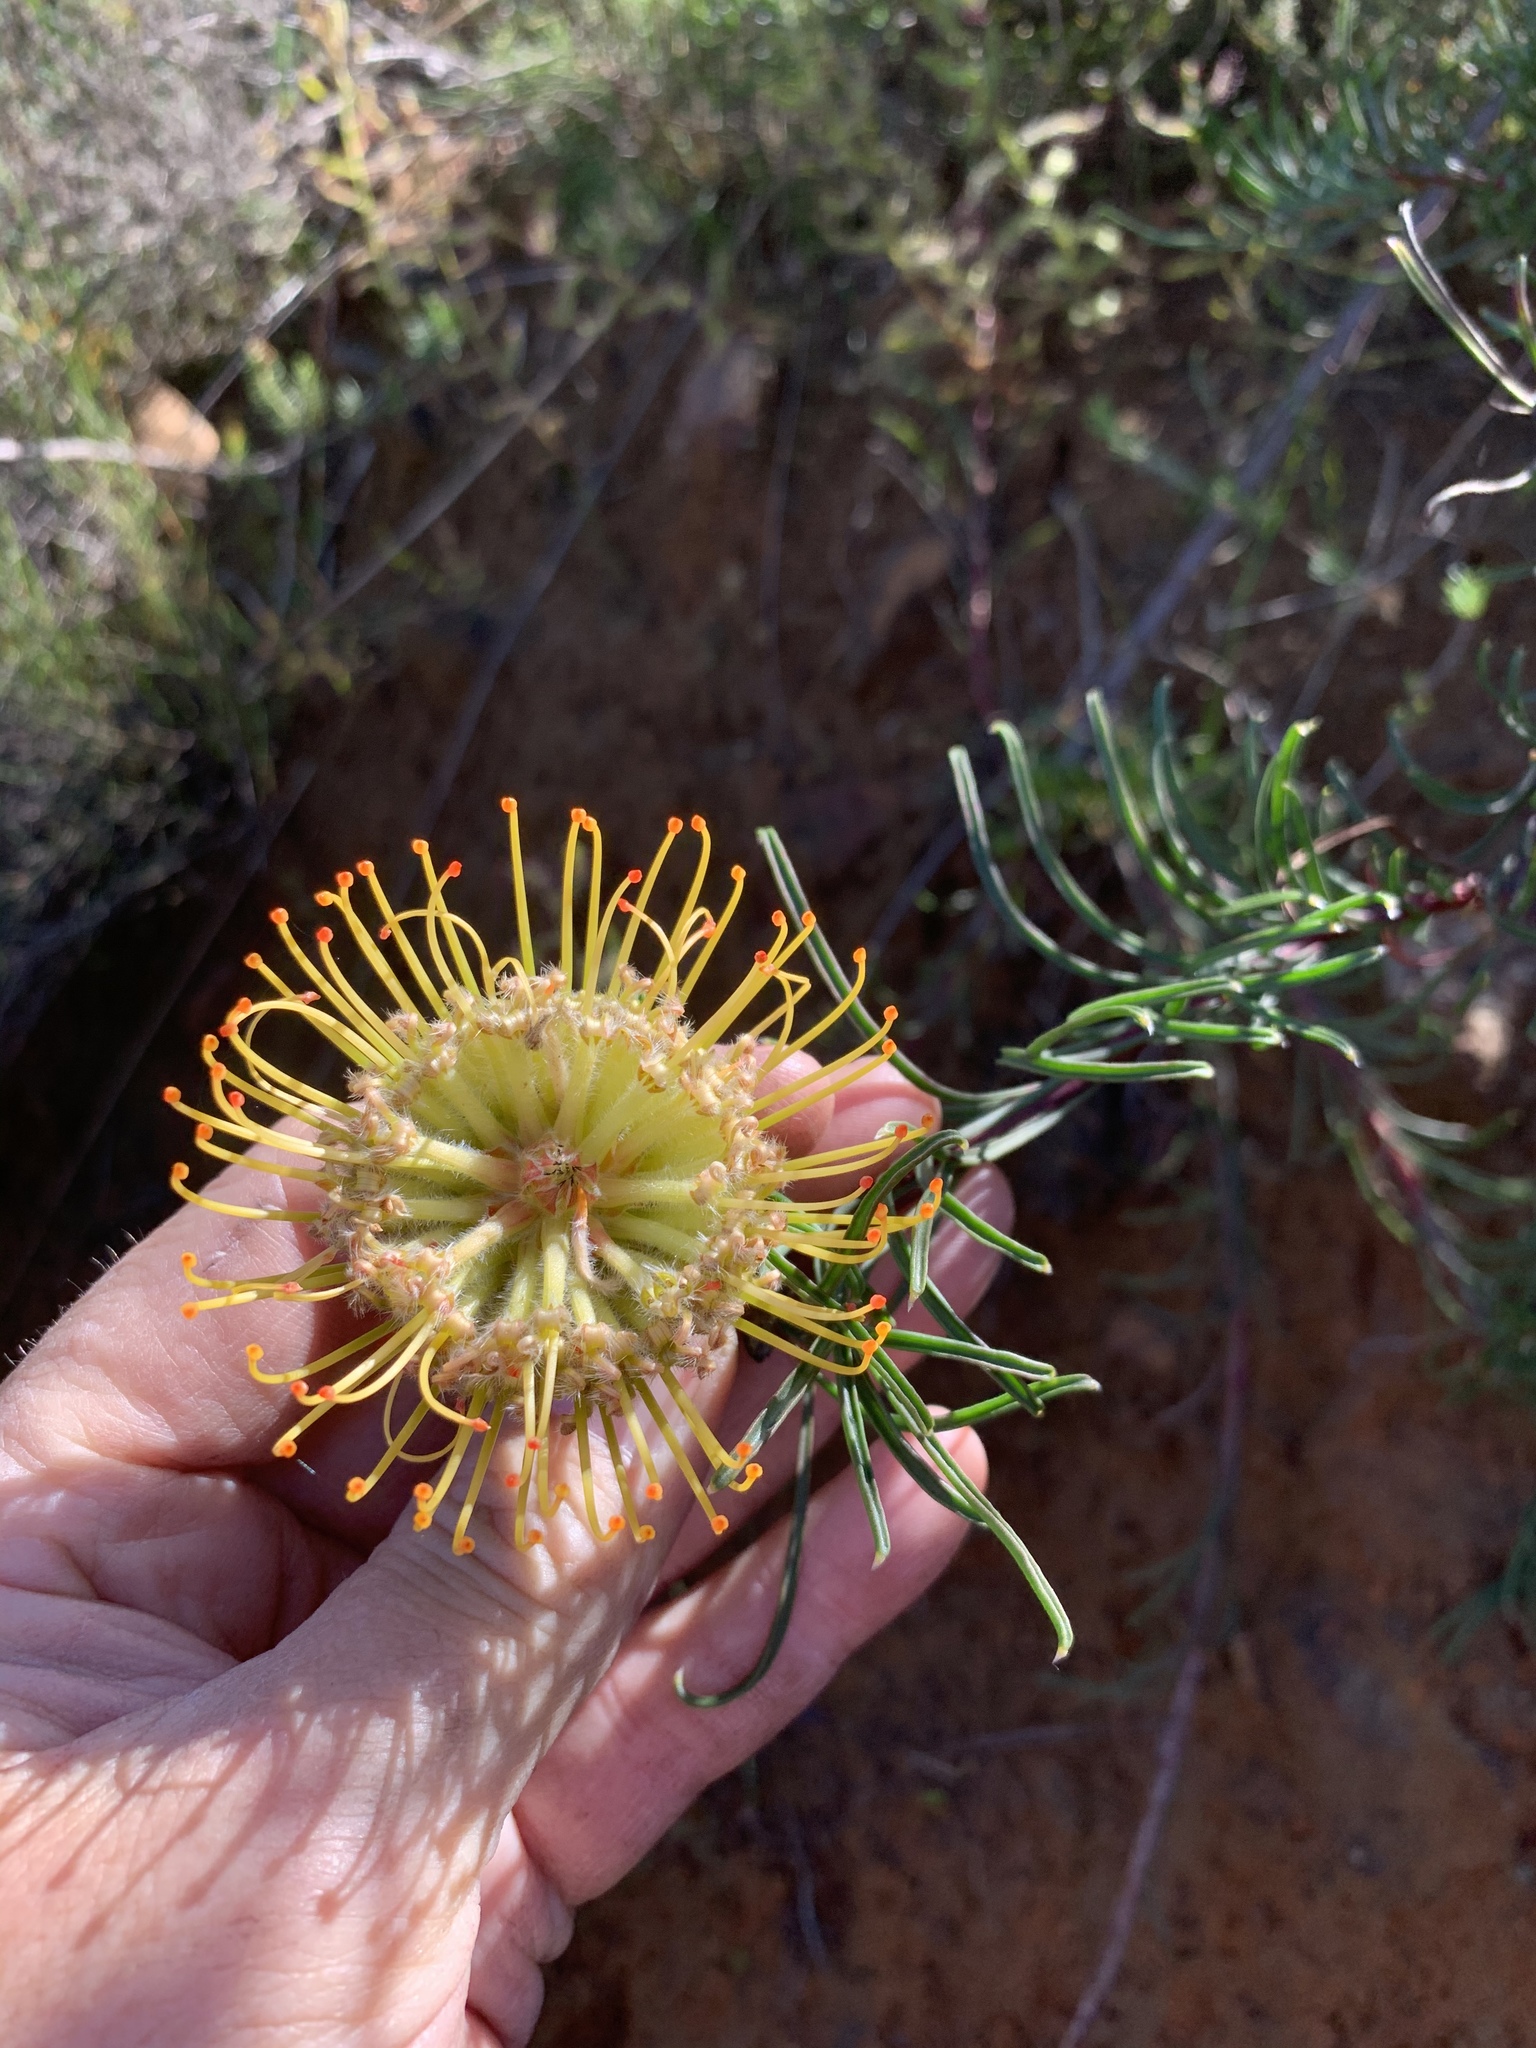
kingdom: Plantae
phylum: Tracheophyta
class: Magnoliopsida
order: Proteales
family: Proteaceae
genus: Leucospermum
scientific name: Leucospermum lineare
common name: Needle-leaf pincushion
